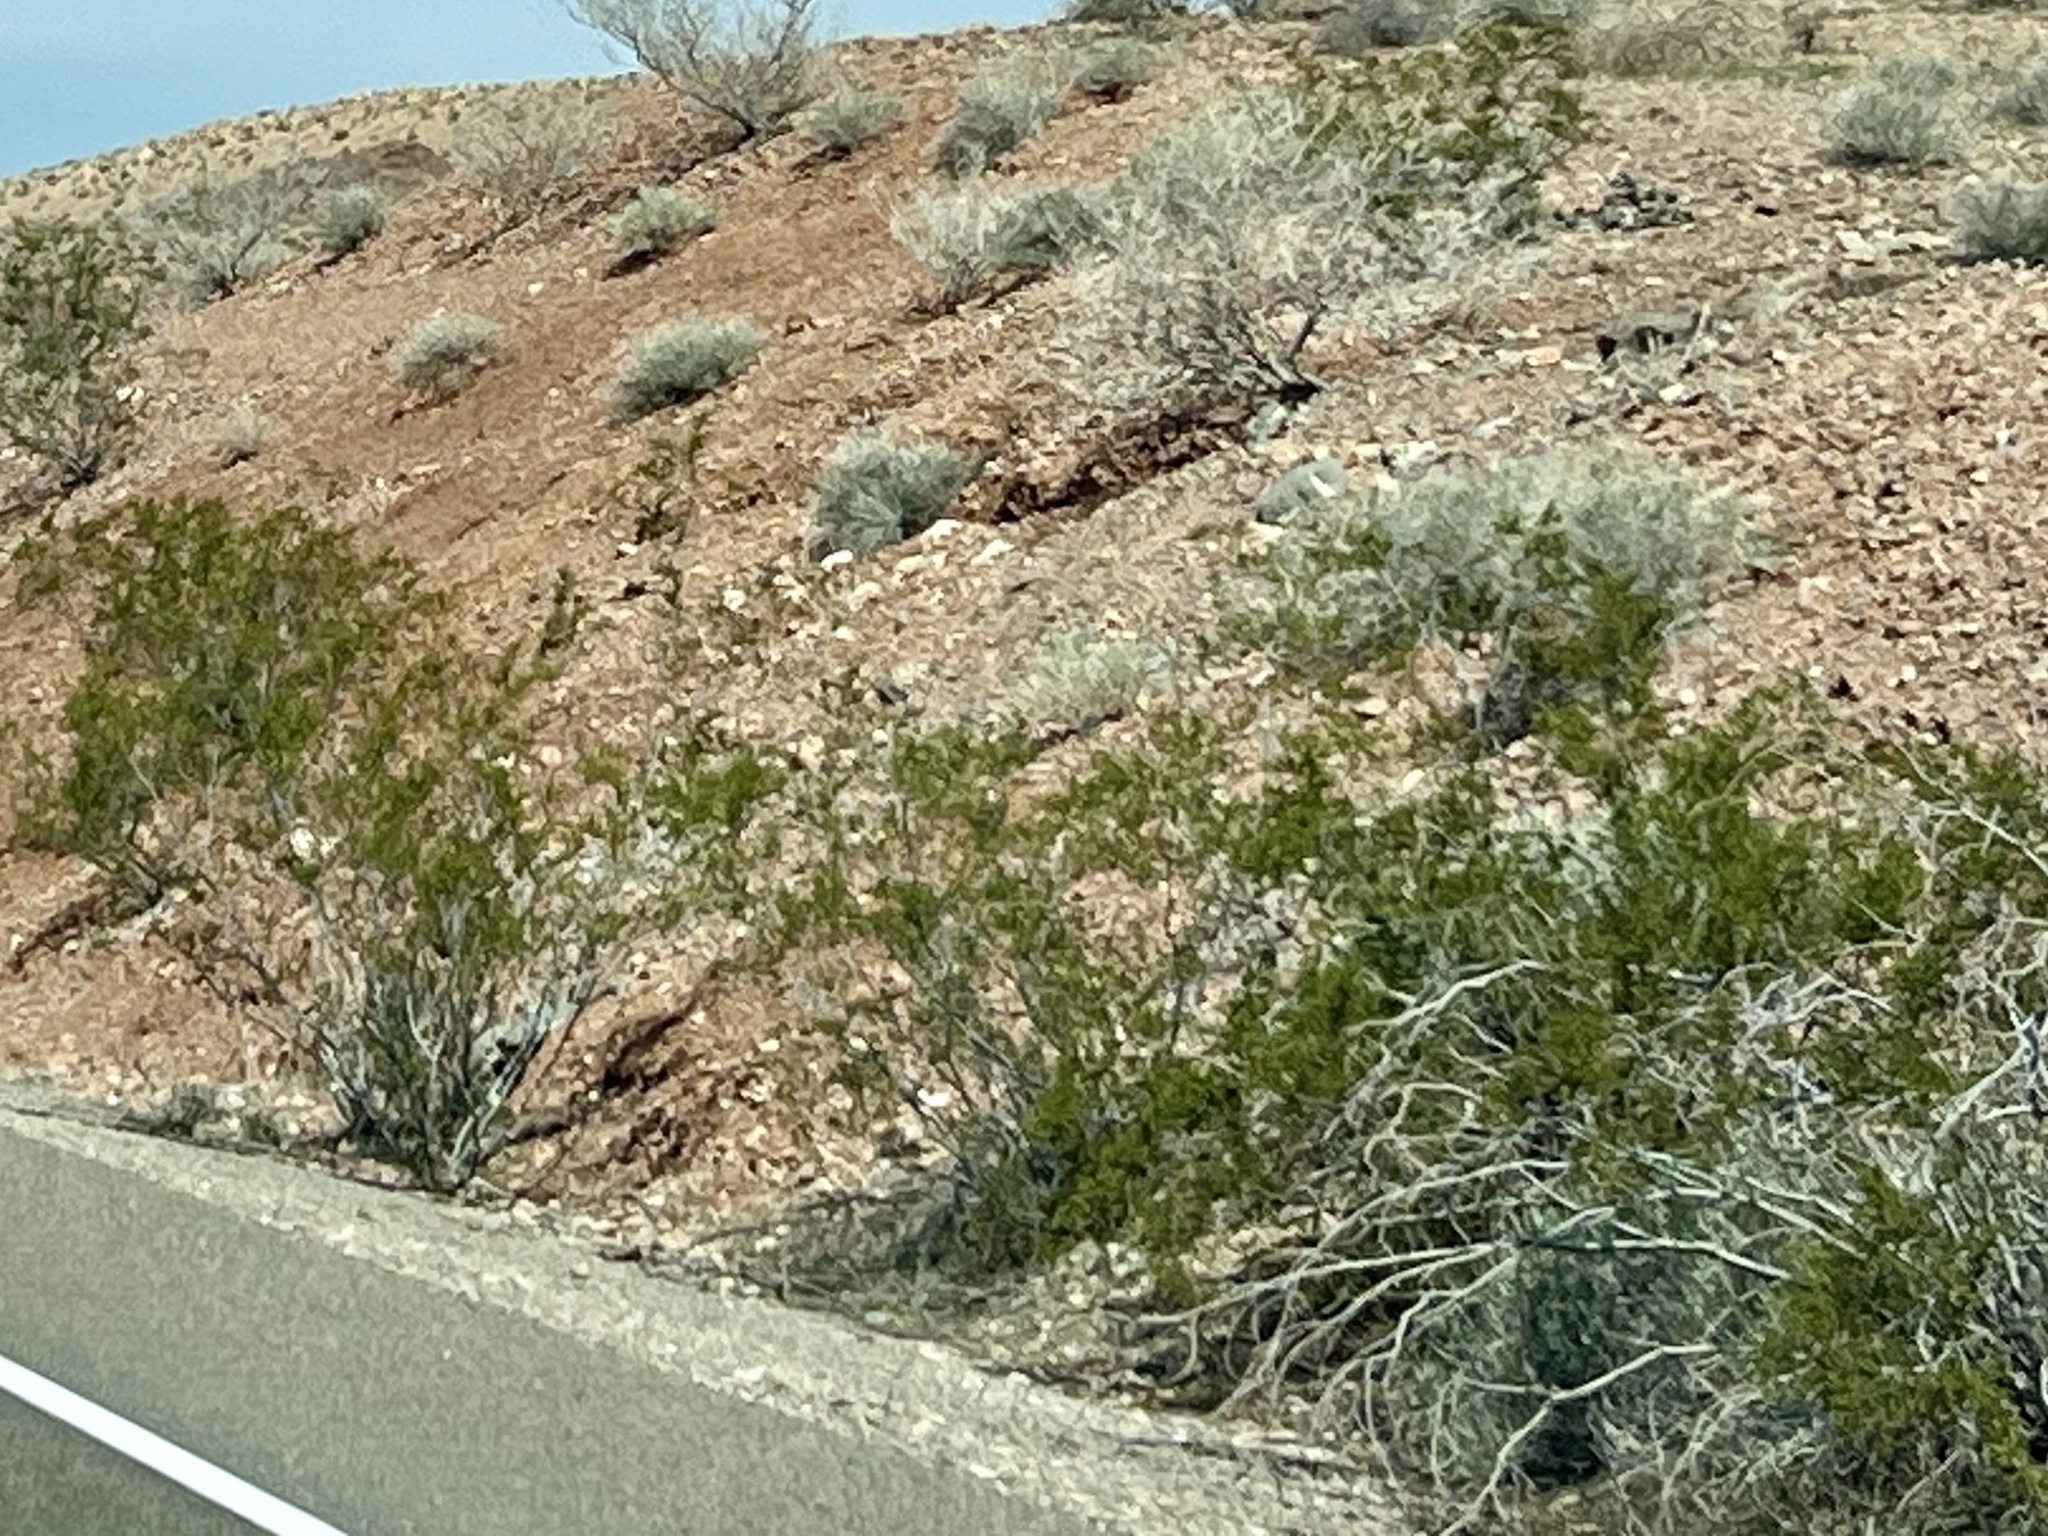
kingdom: Plantae
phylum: Tracheophyta
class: Magnoliopsida
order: Zygophyllales
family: Zygophyllaceae
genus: Larrea
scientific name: Larrea tridentata
